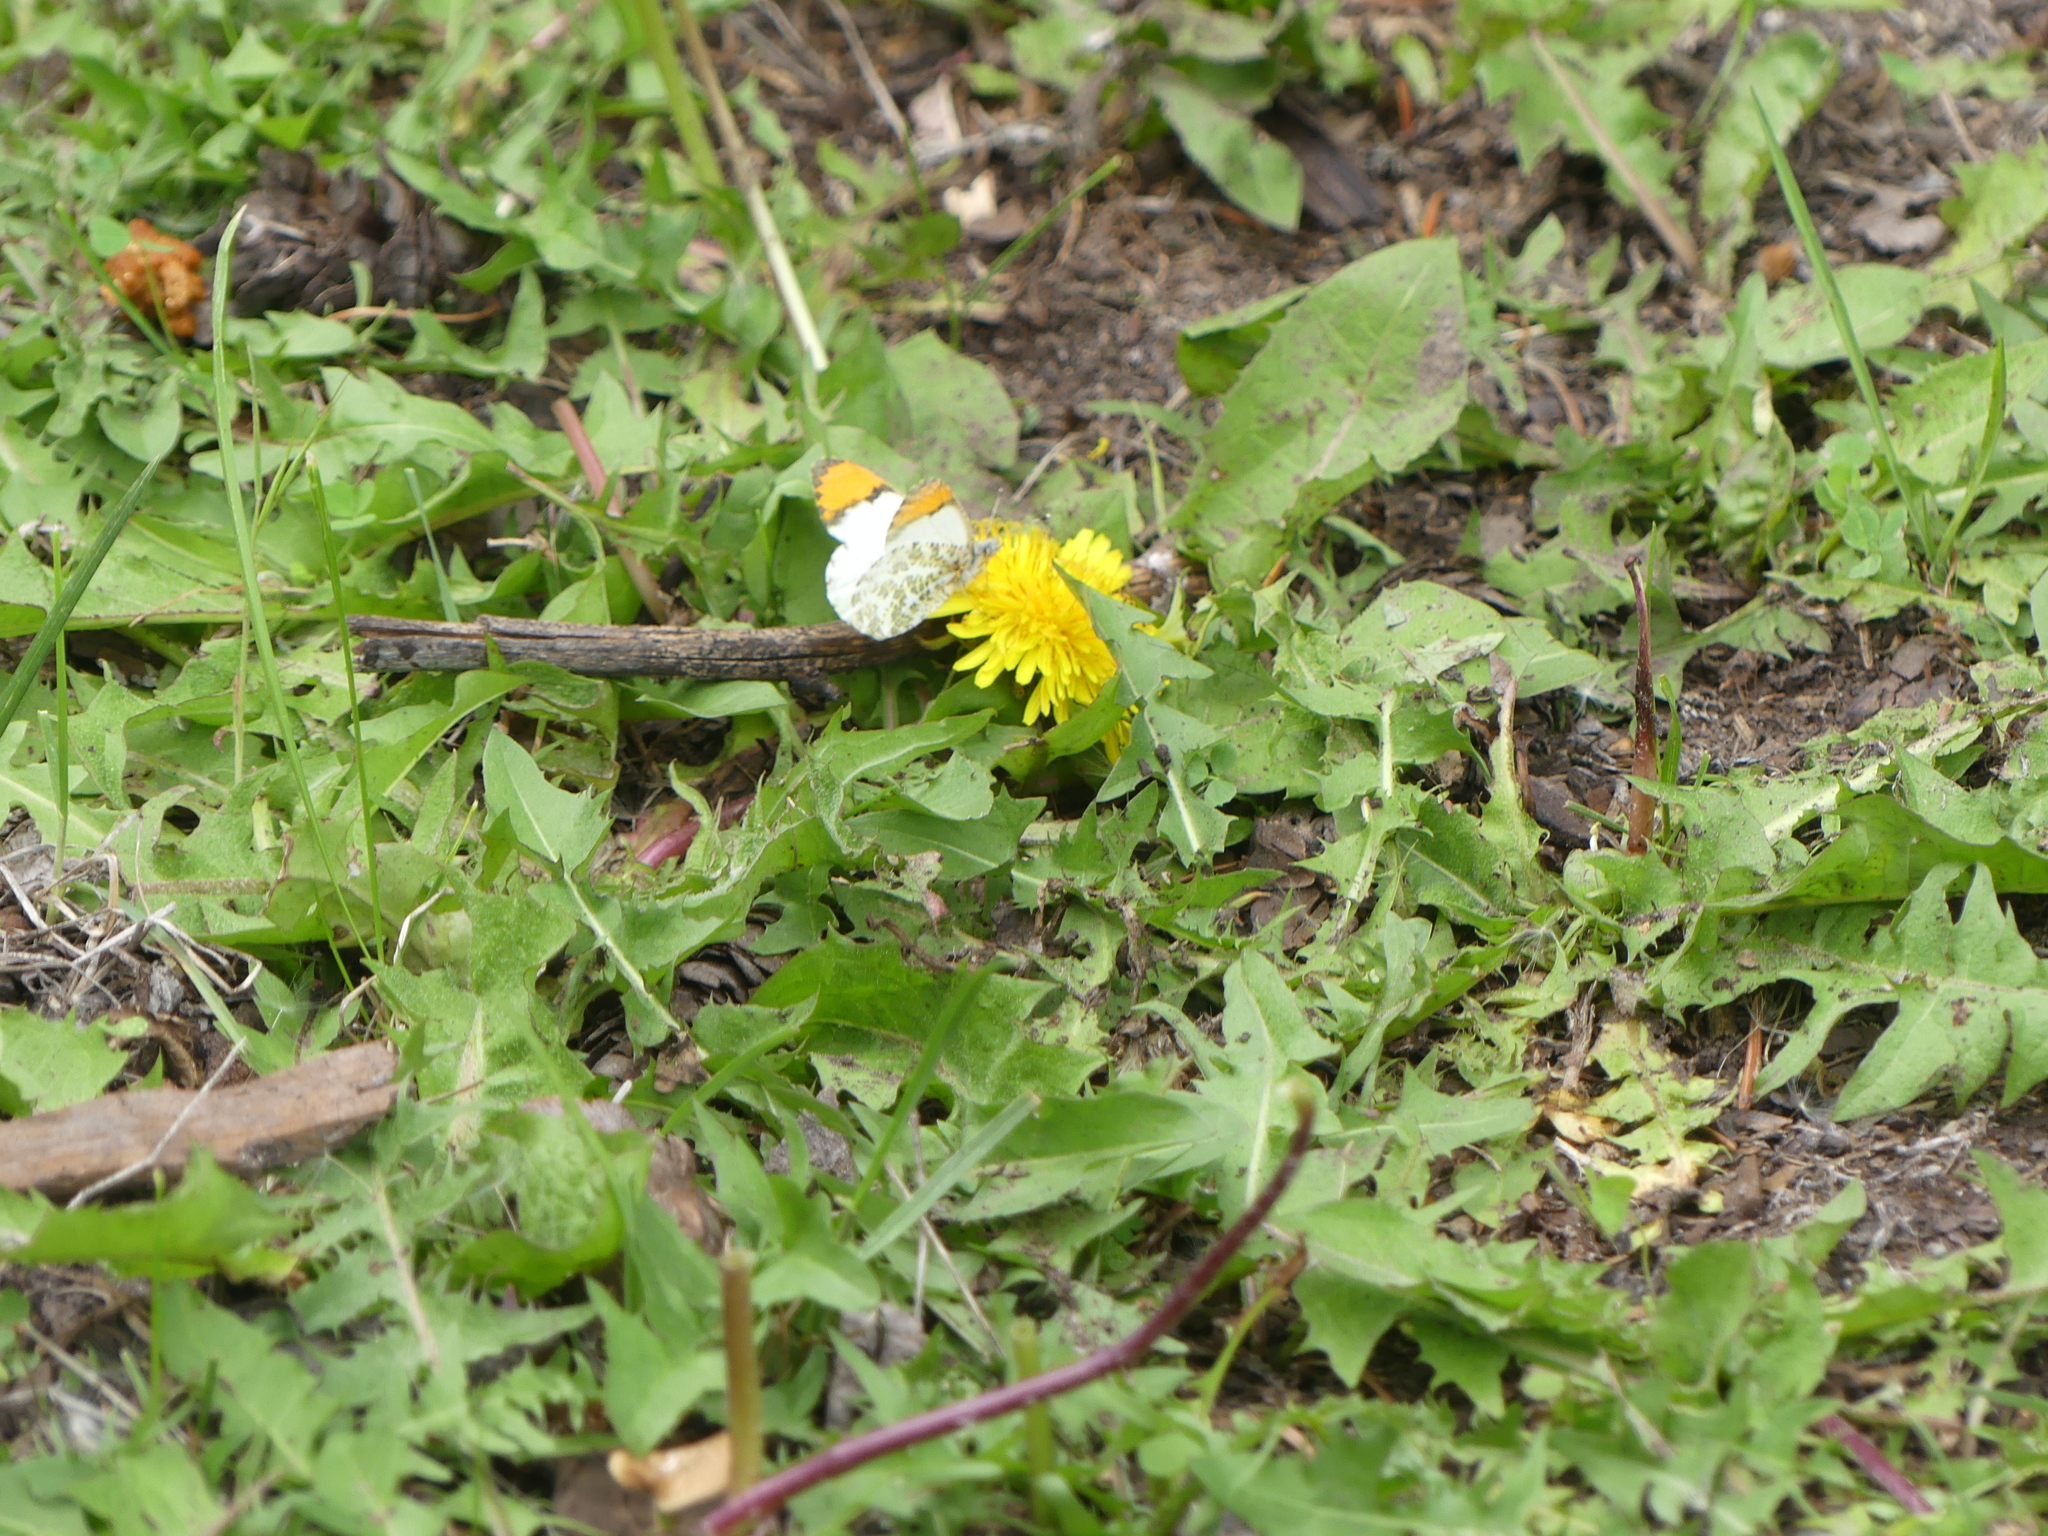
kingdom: Animalia
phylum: Arthropoda
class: Insecta
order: Lepidoptera
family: Pieridae
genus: Anthocharis
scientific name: Anthocharis julia
